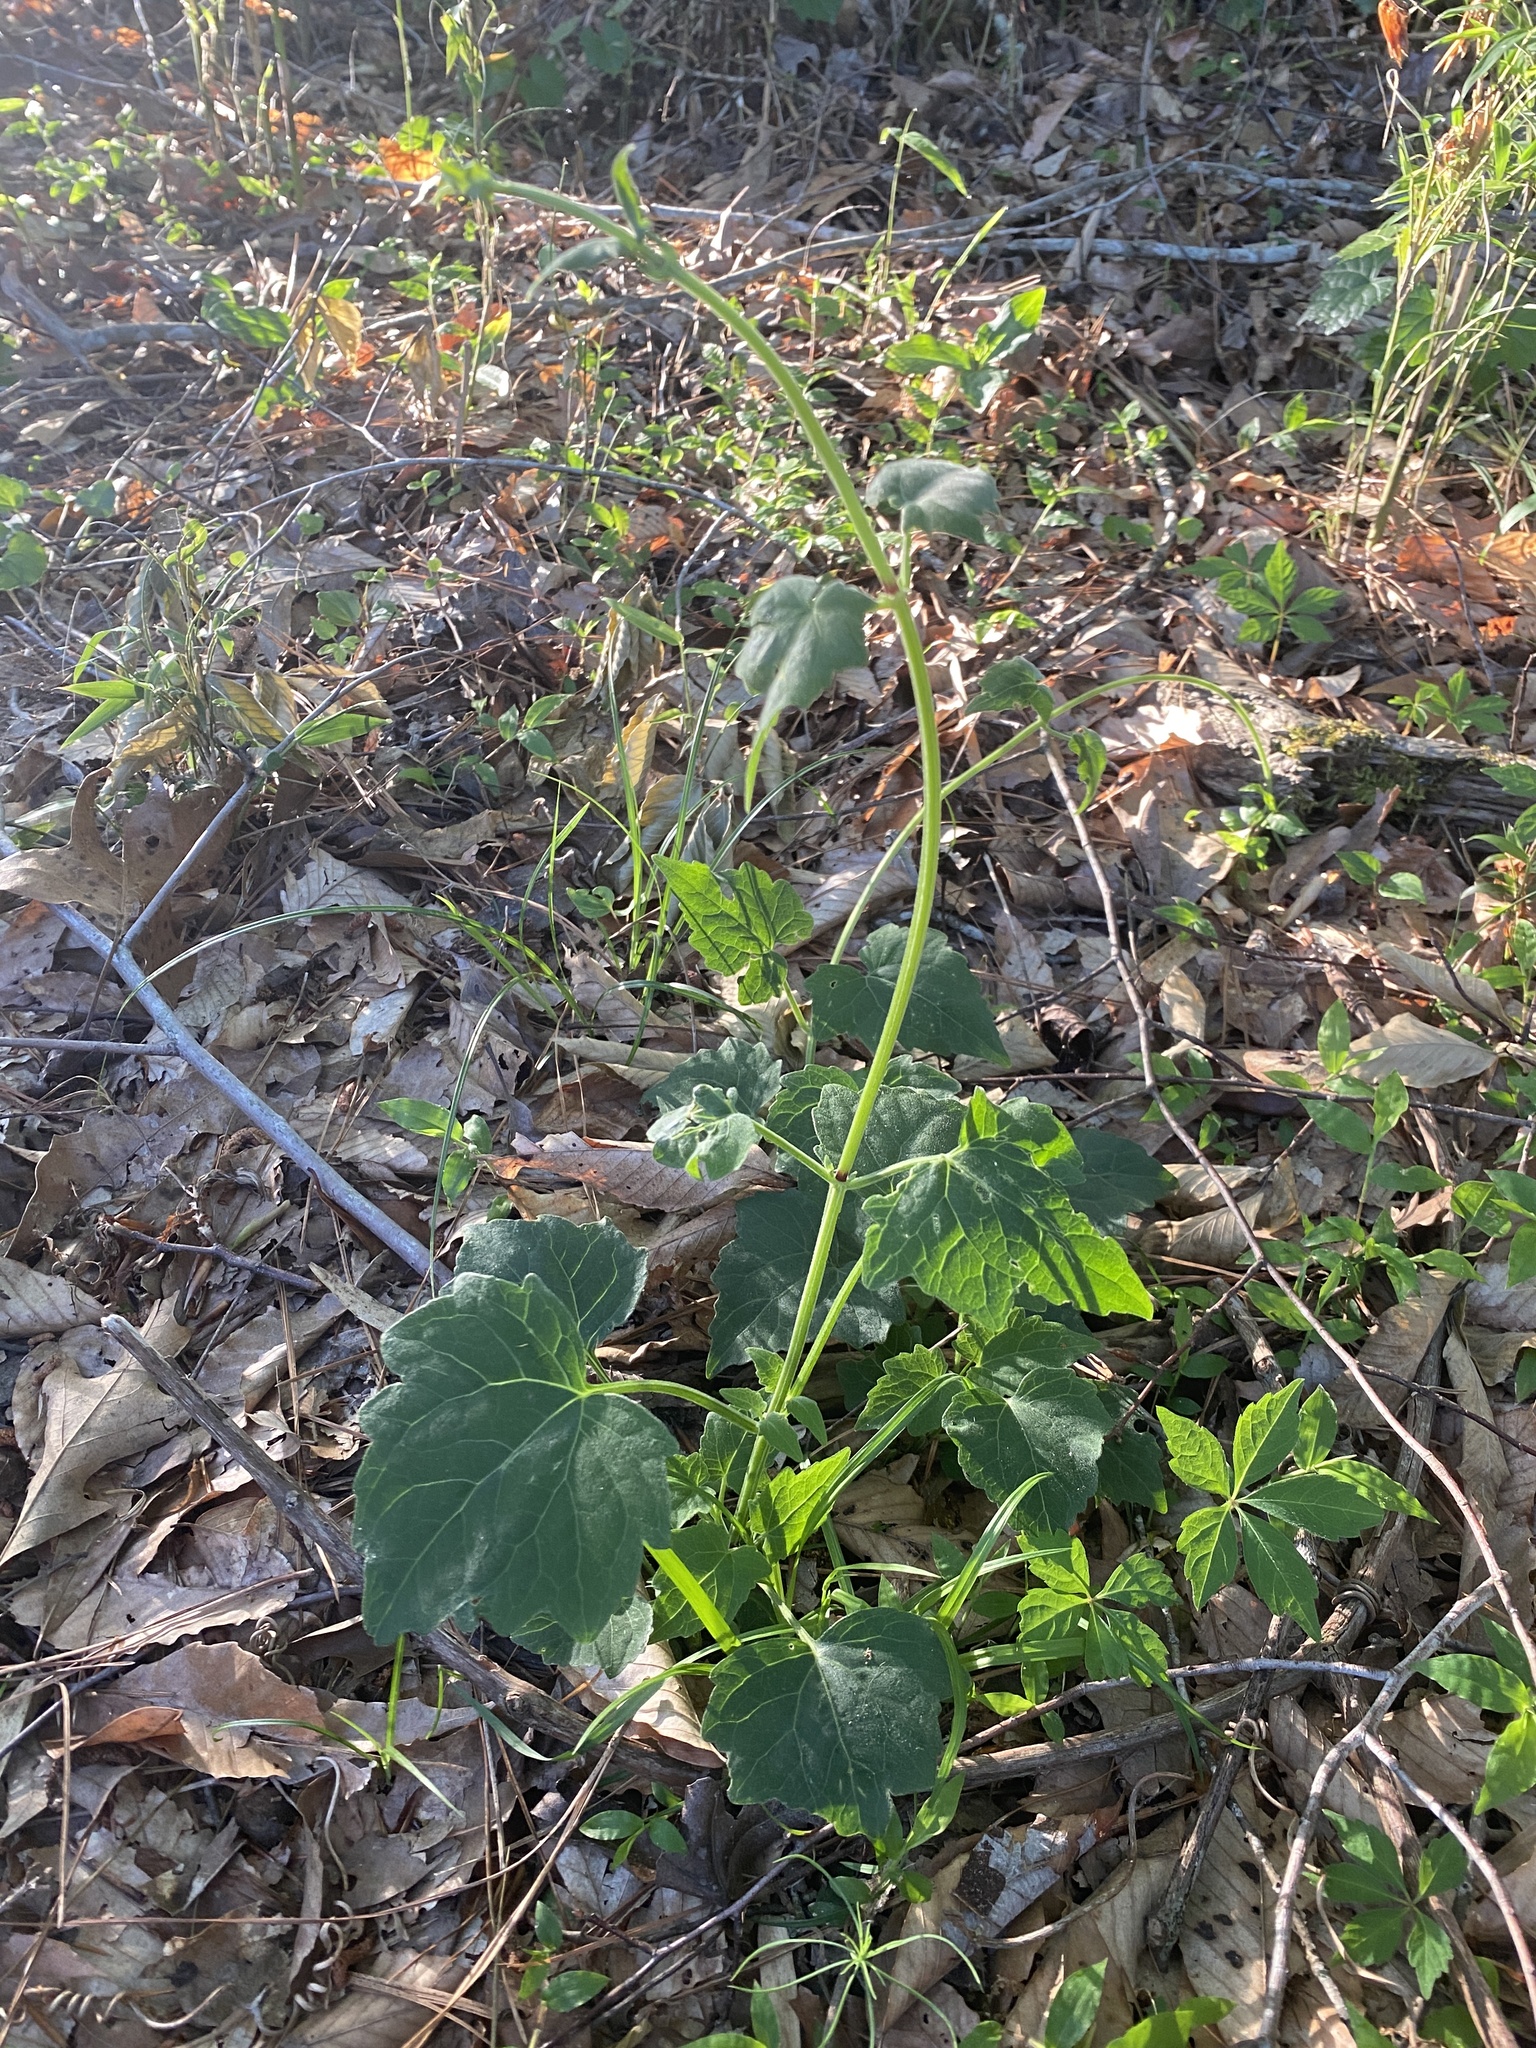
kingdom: Plantae
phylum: Tracheophyta
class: Magnoliopsida
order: Asterales
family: Asteraceae
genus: Mikania
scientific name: Mikania cordifolia
